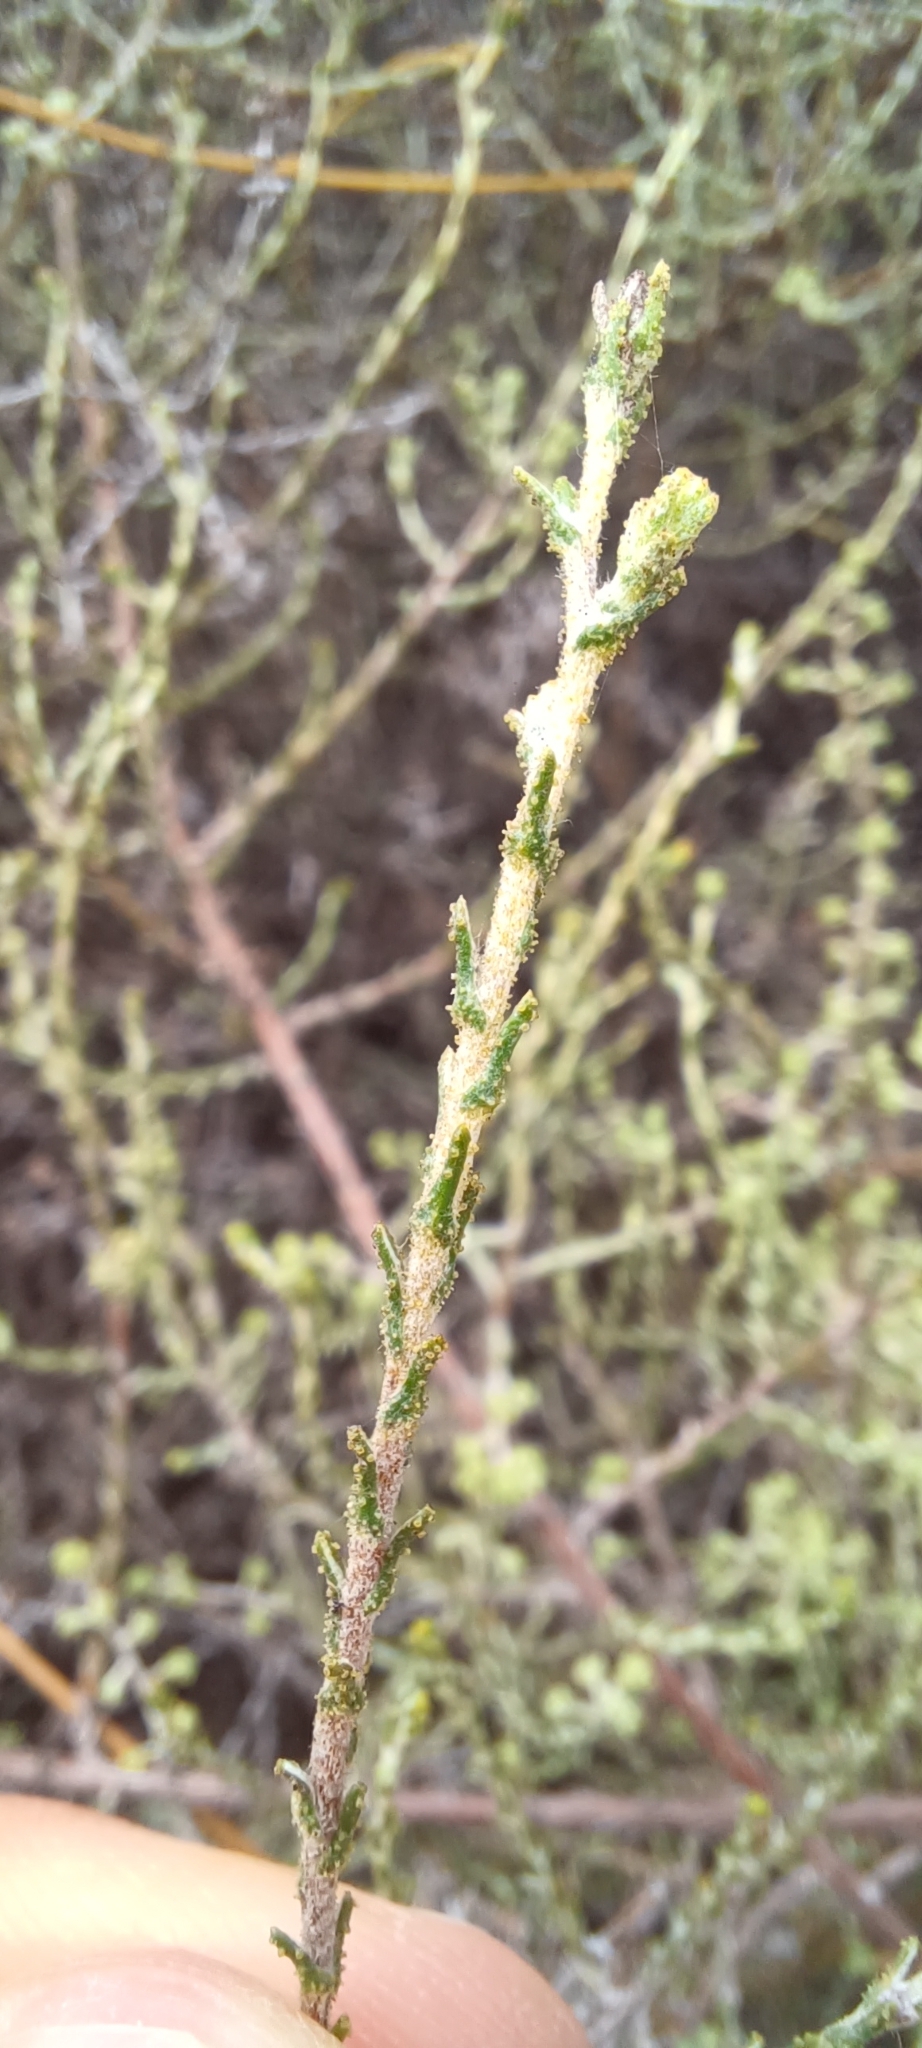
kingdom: Plantae
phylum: Tracheophyta
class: Magnoliopsida
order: Asterales
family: Asteraceae
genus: Myrovernix
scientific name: Myrovernix intricata
